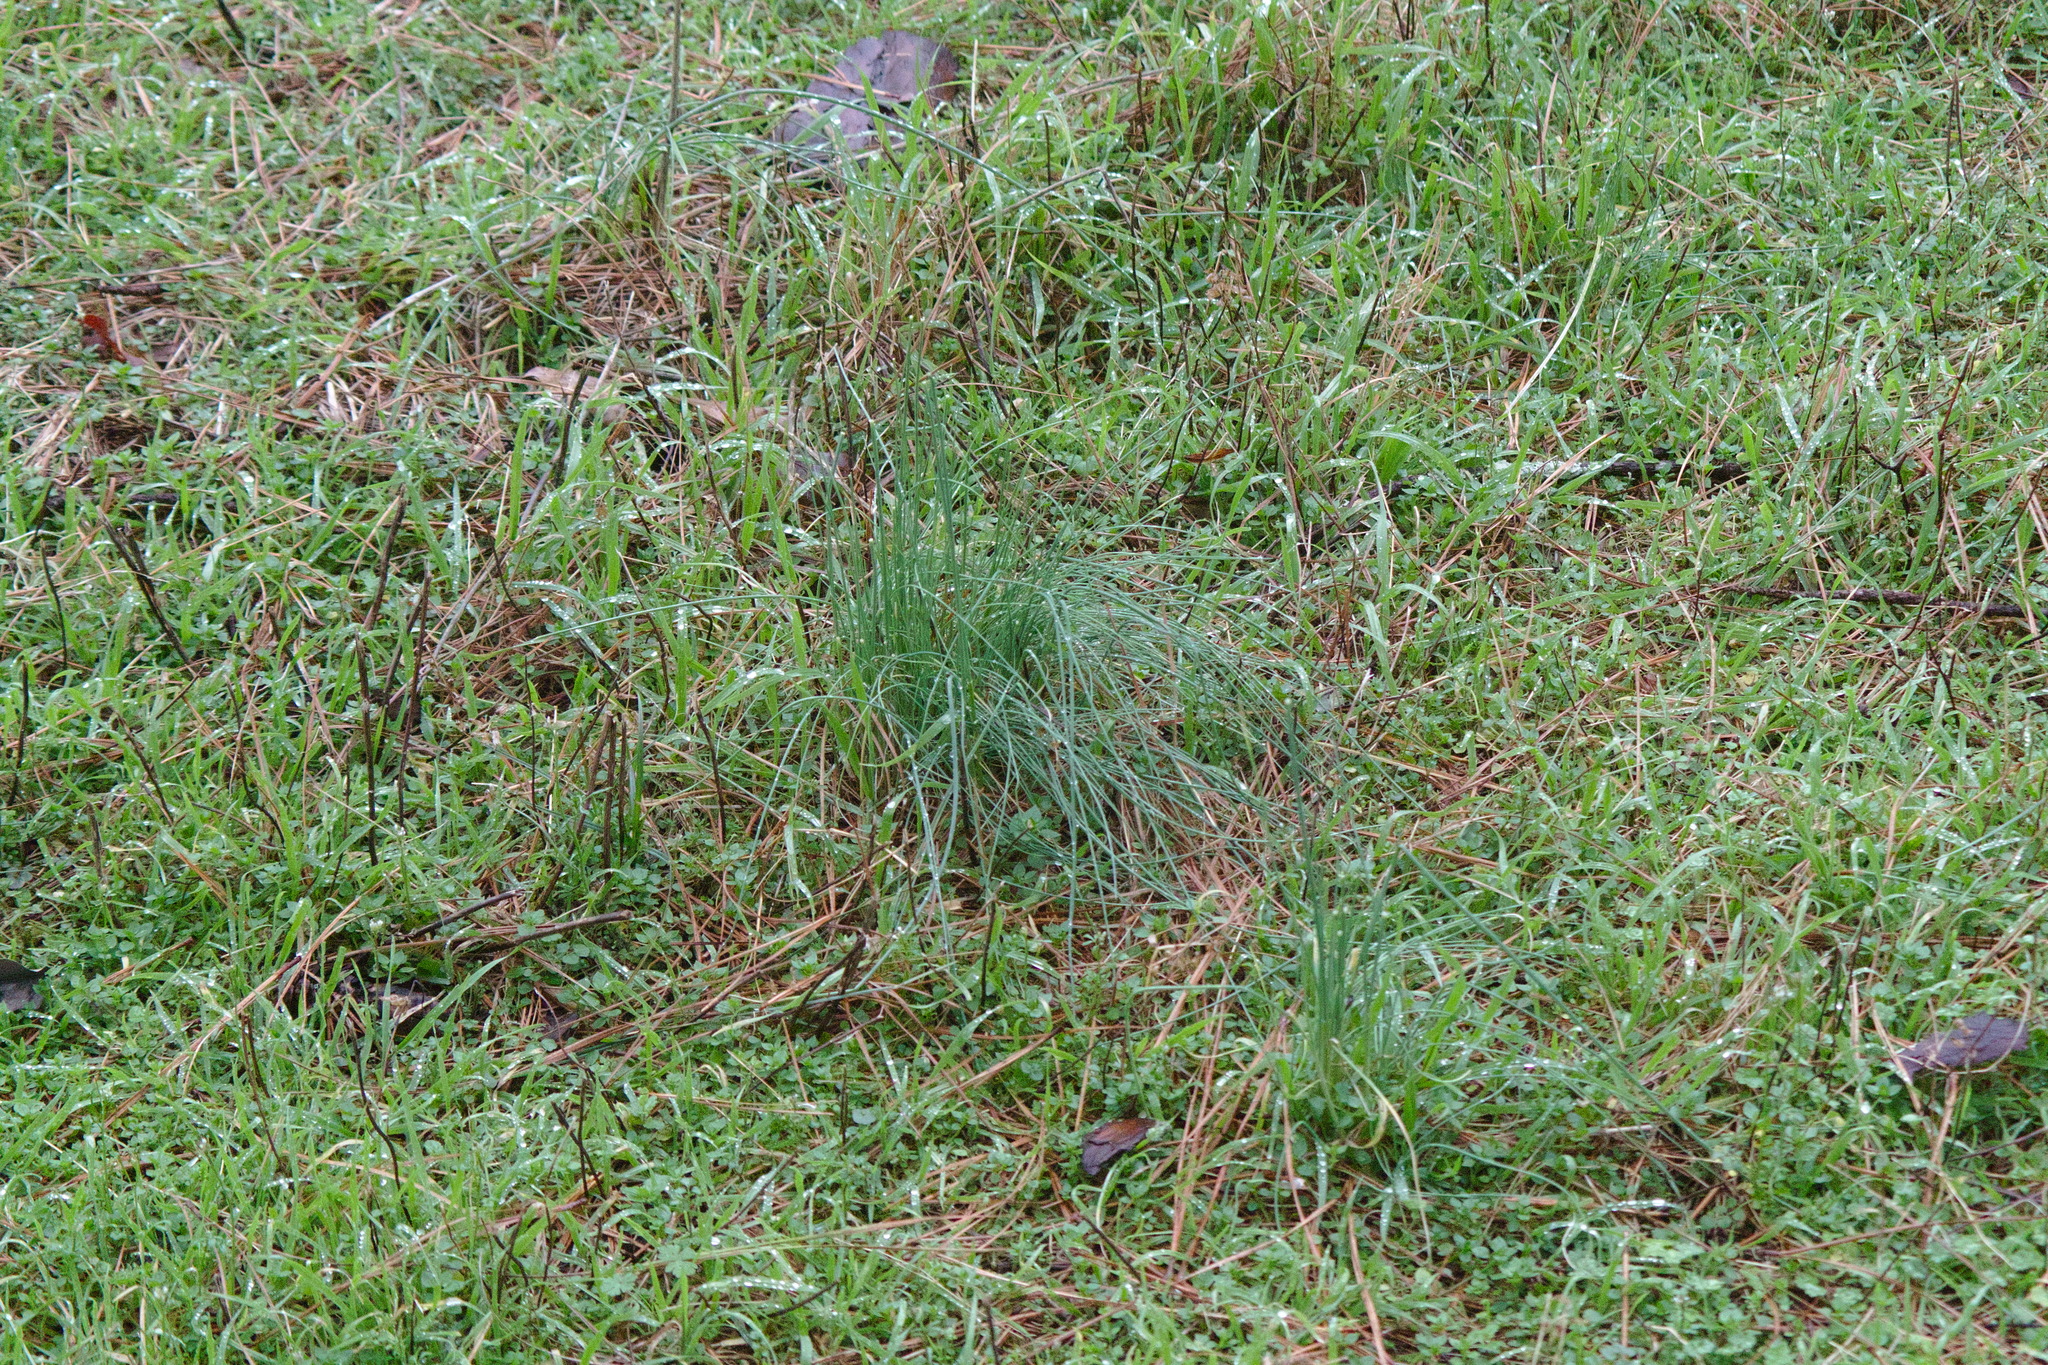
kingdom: Plantae
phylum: Tracheophyta
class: Liliopsida
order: Asparagales
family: Amaryllidaceae
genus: Allium
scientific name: Allium vineale
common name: Crow garlic
